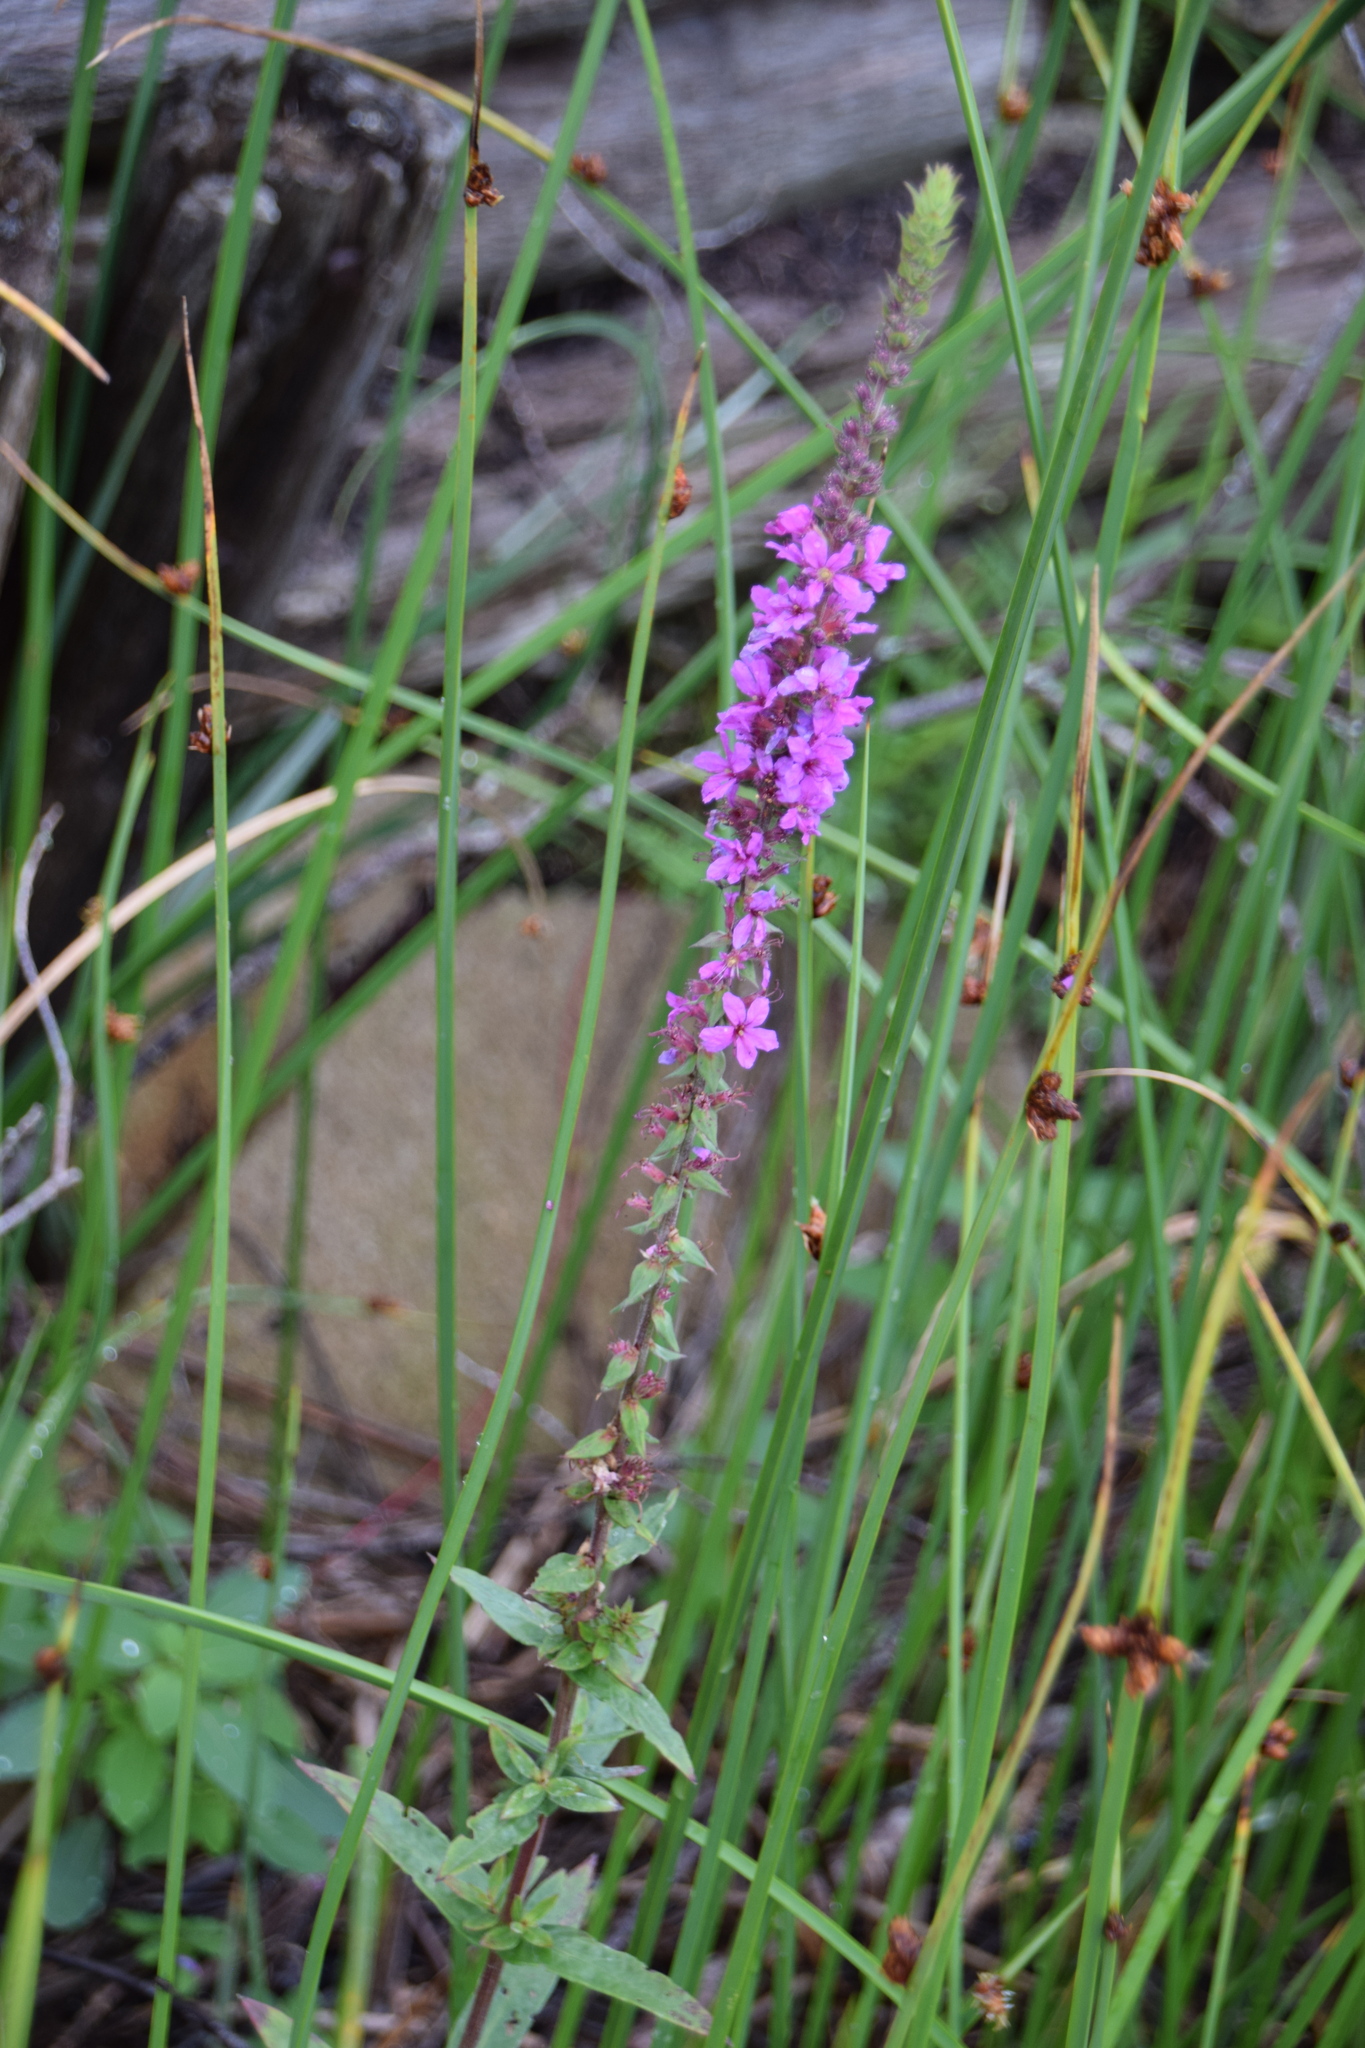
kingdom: Plantae
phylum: Tracheophyta
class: Magnoliopsida
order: Myrtales
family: Lythraceae
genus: Lythrum
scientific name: Lythrum salicaria
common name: Purple loosestrife
